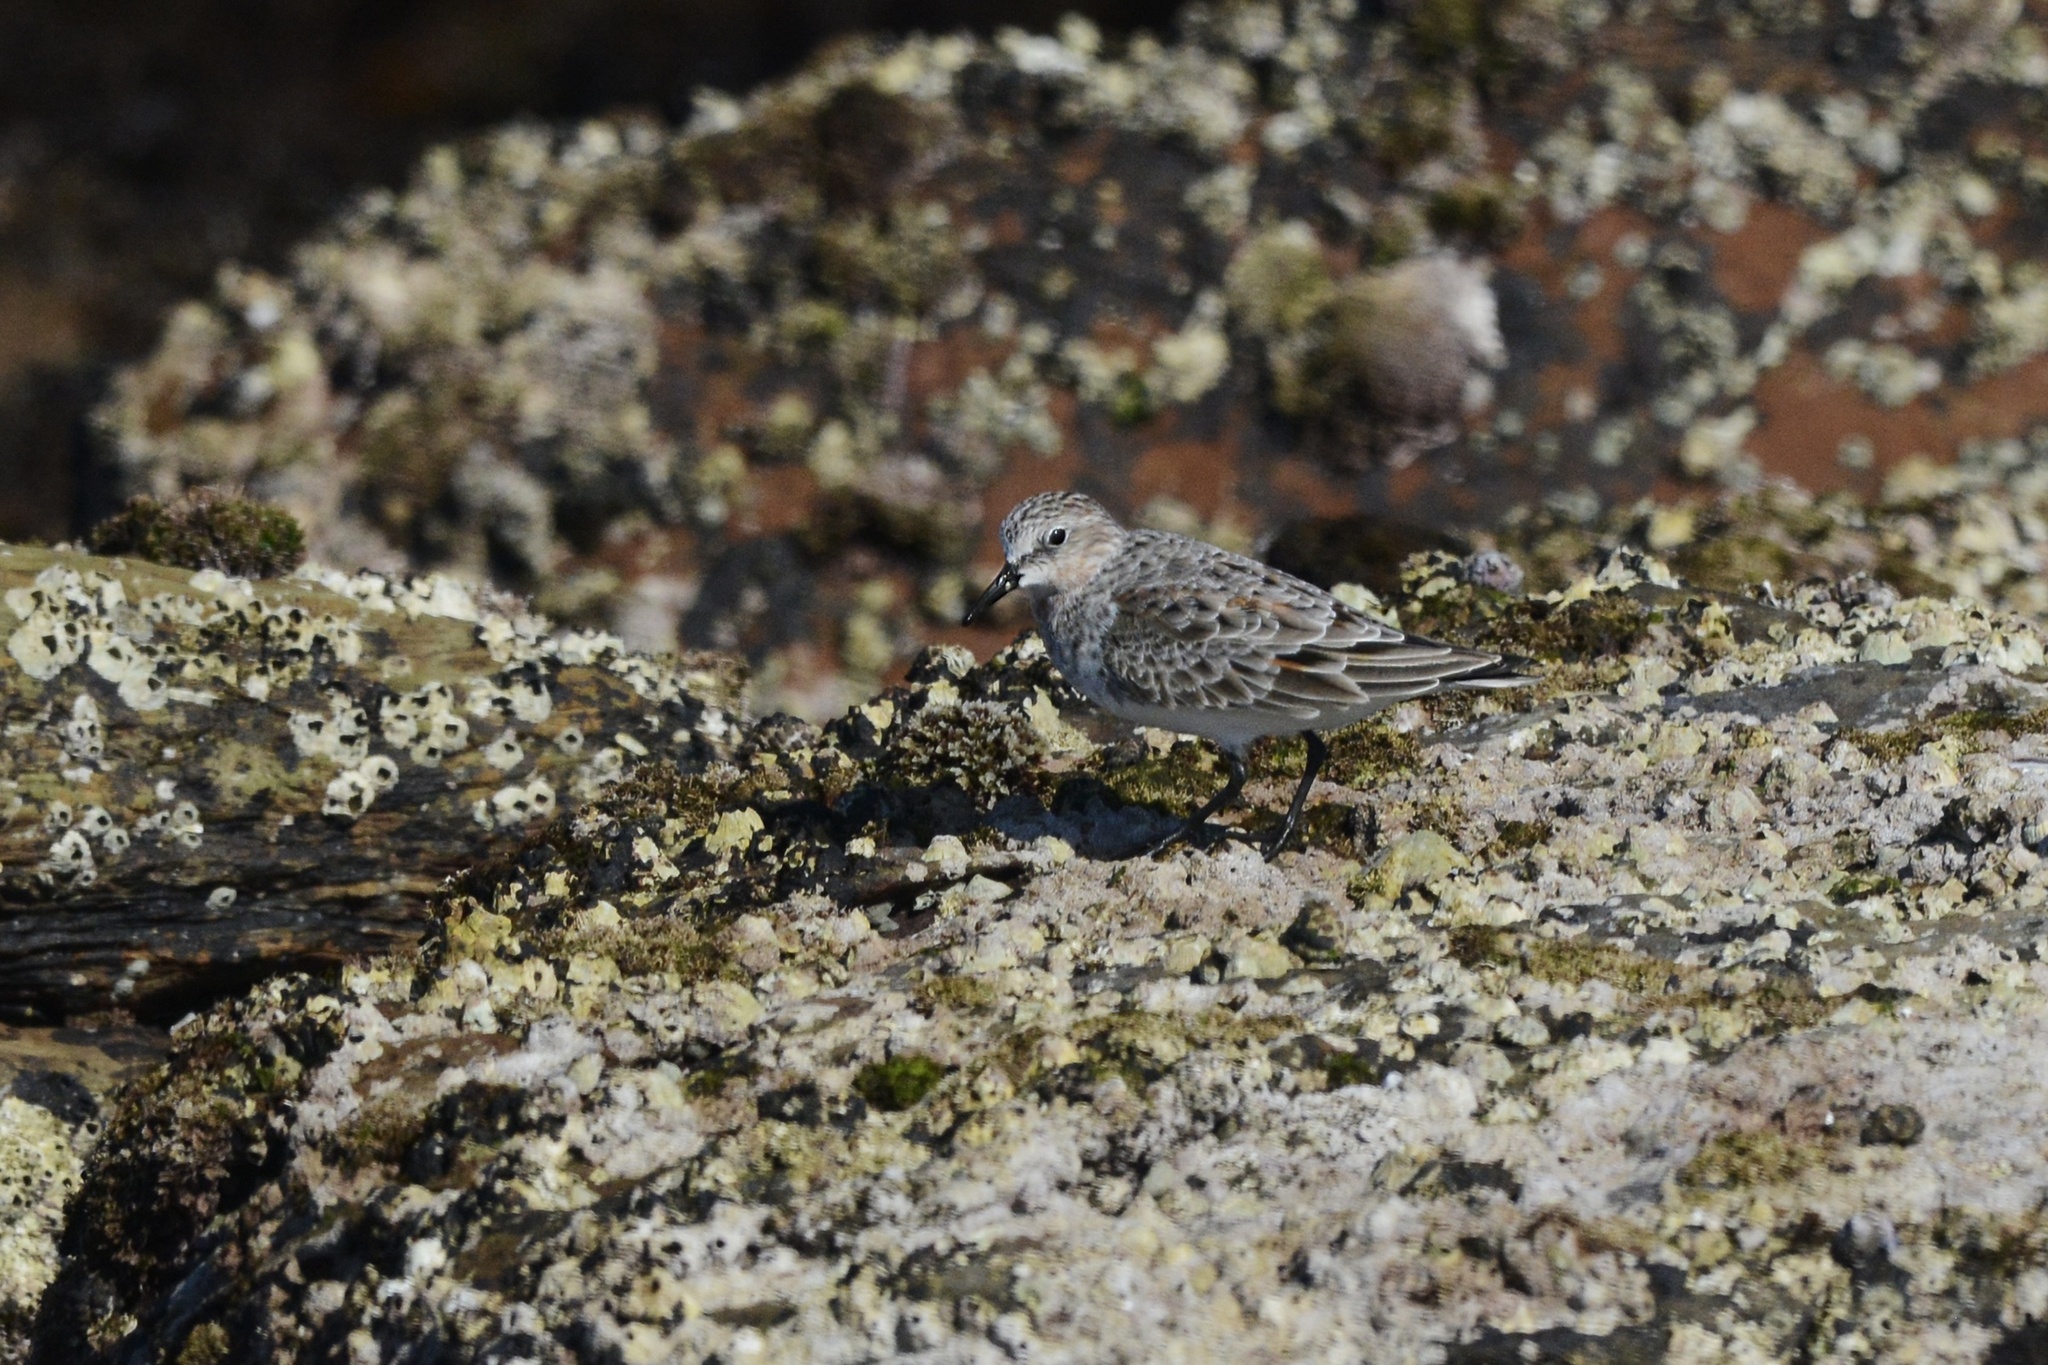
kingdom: Animalia
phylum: Chordata
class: Aves
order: Charadriiformes
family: Scolopacidae
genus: Calidris
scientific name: Calidris ruficollis
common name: Red-necked stint
